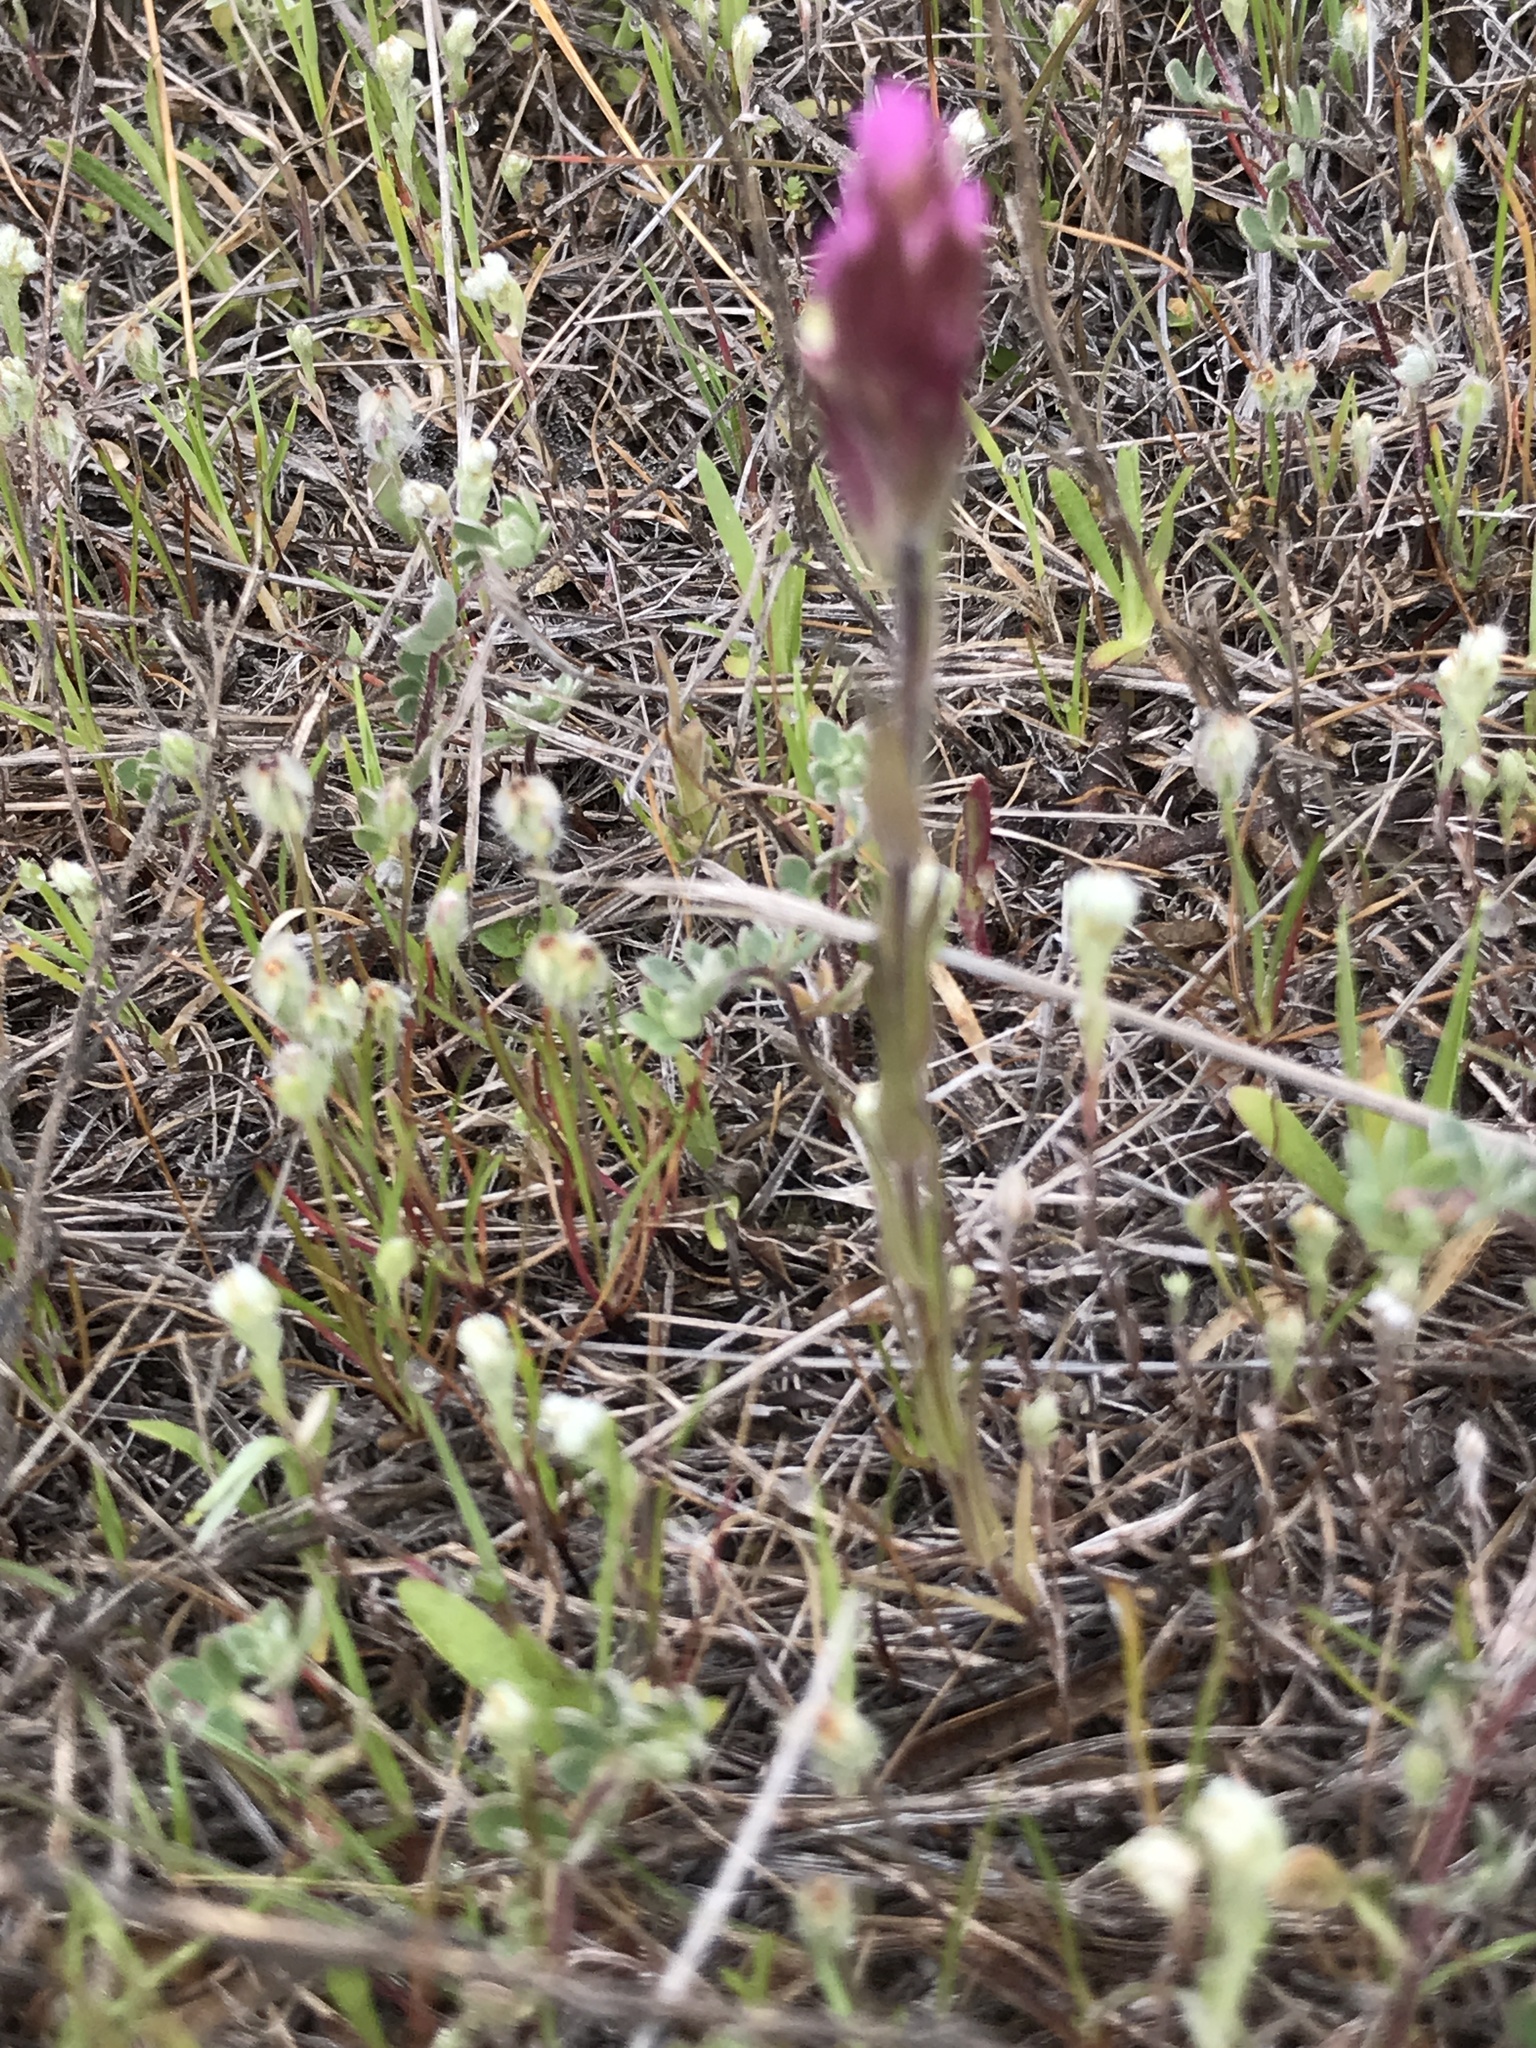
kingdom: Plantae
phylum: Tracheophyta
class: Magnoliopsida
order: Lamiales
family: Orobanchaceae
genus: Castilleja
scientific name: Castilleja densiflora
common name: Dense-flower indian paintbrush
